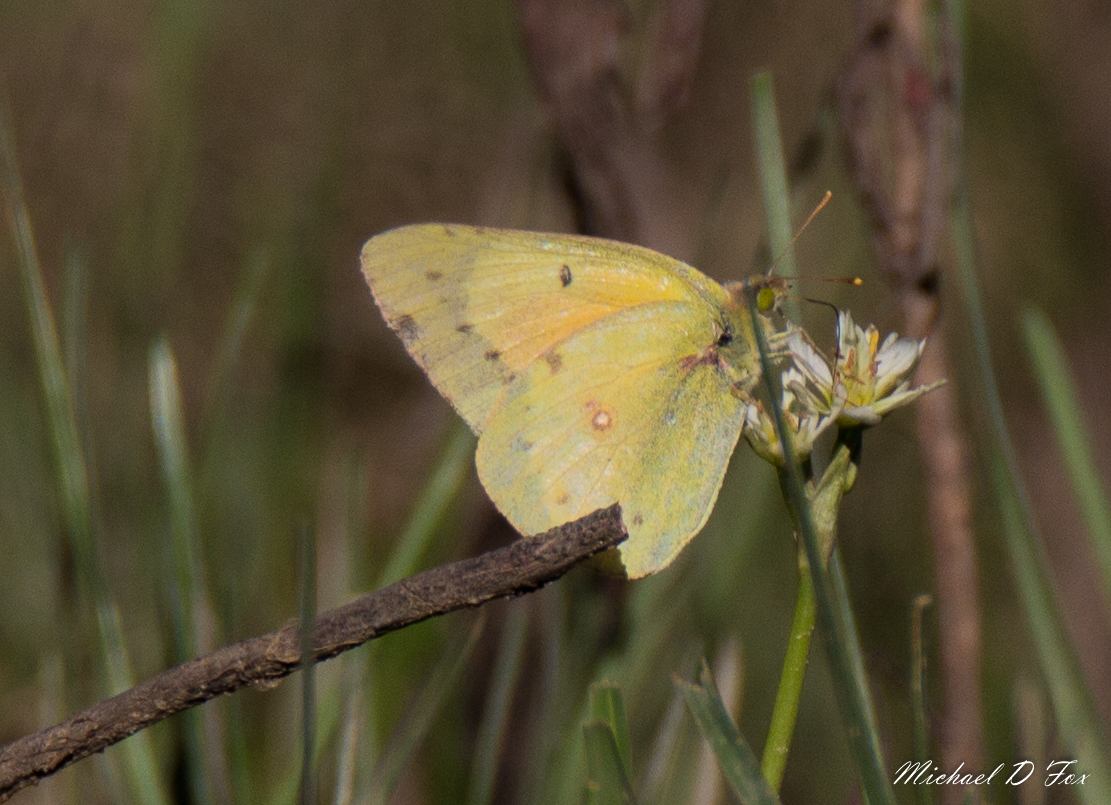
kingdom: Animalia
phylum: Arthropoda
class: Insecta
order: Lepidoptera
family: Pieridae
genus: Colias
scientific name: Colias eurytheme
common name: Alfalfa butterfly
